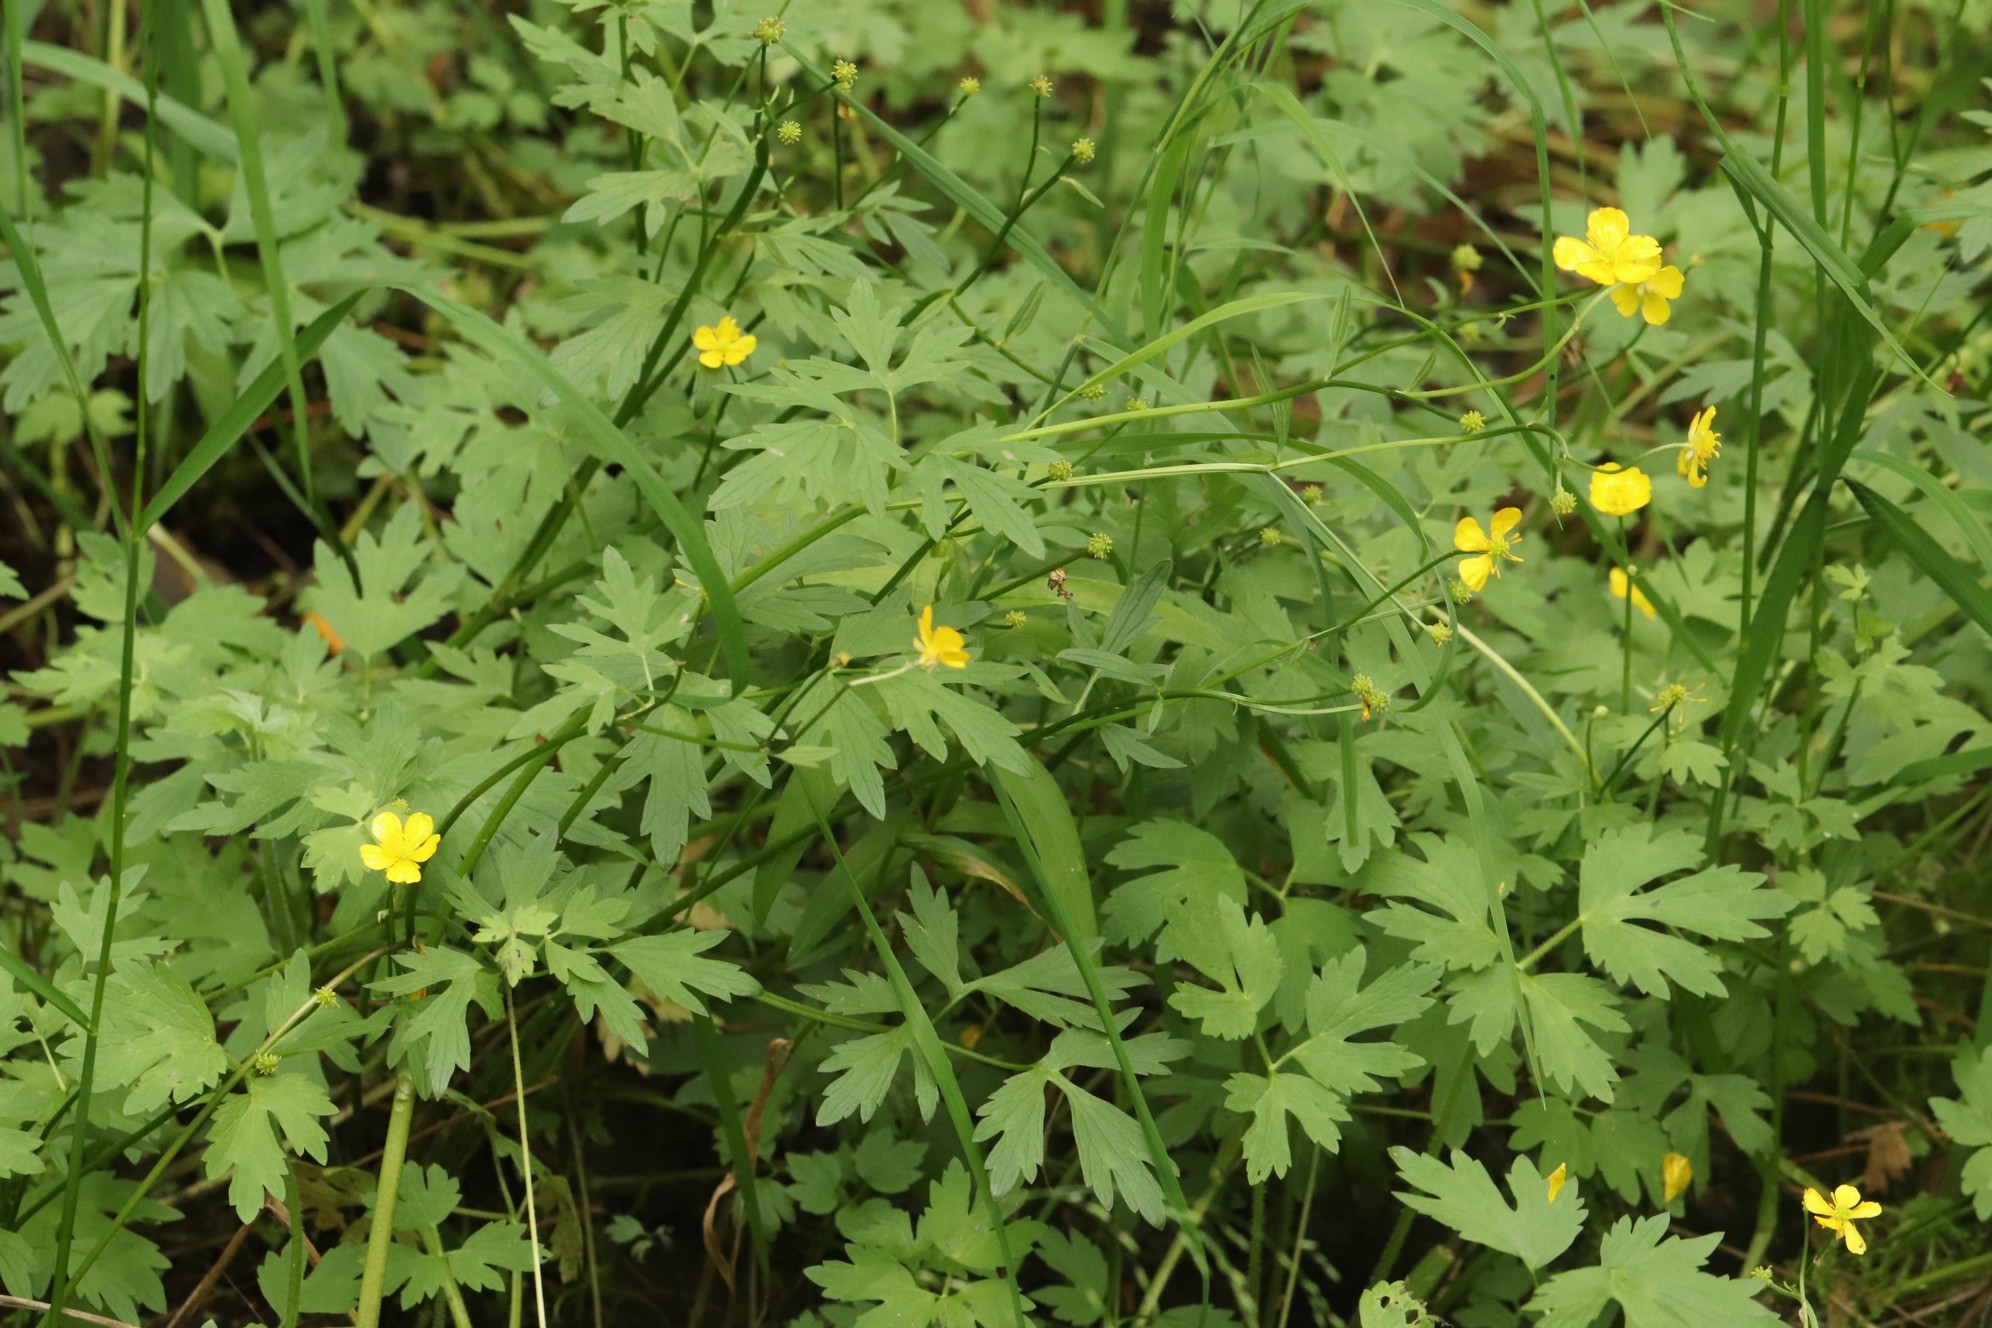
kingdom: Plantae
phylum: Tracheophyta
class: Magnoliopsida
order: Ranunculales
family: Ranunculaceae
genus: Ranunculus
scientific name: Ranunculus repens
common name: Creeping buttercup
